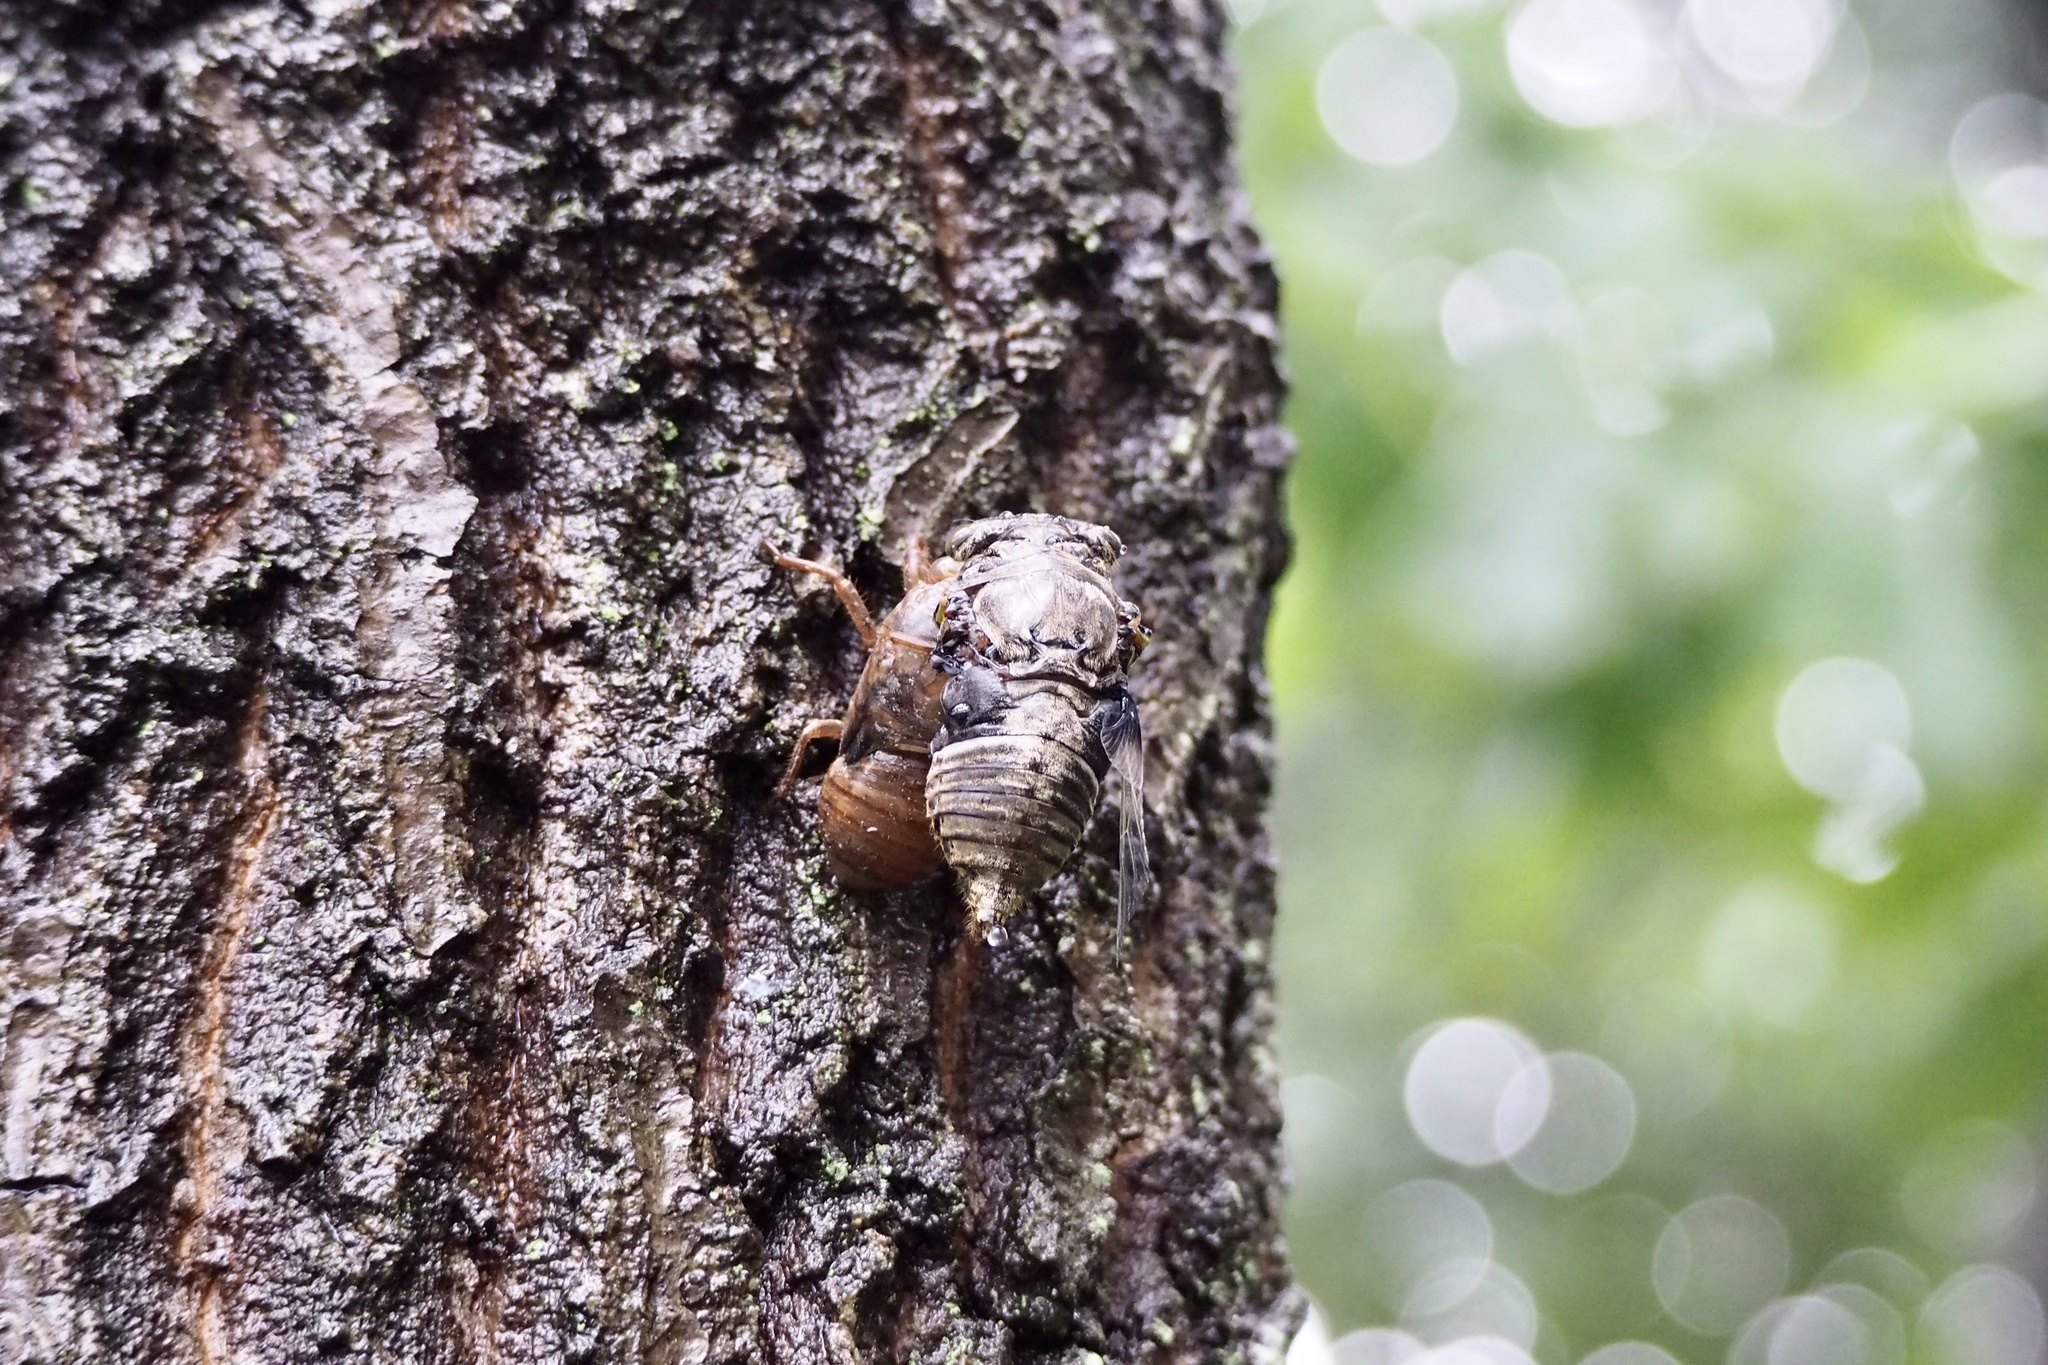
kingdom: Animalia
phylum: Arthropoda
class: Insecta
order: Hemiptera
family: Cicadidae
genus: Cryptotympana
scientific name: Cryptotympana facialis
